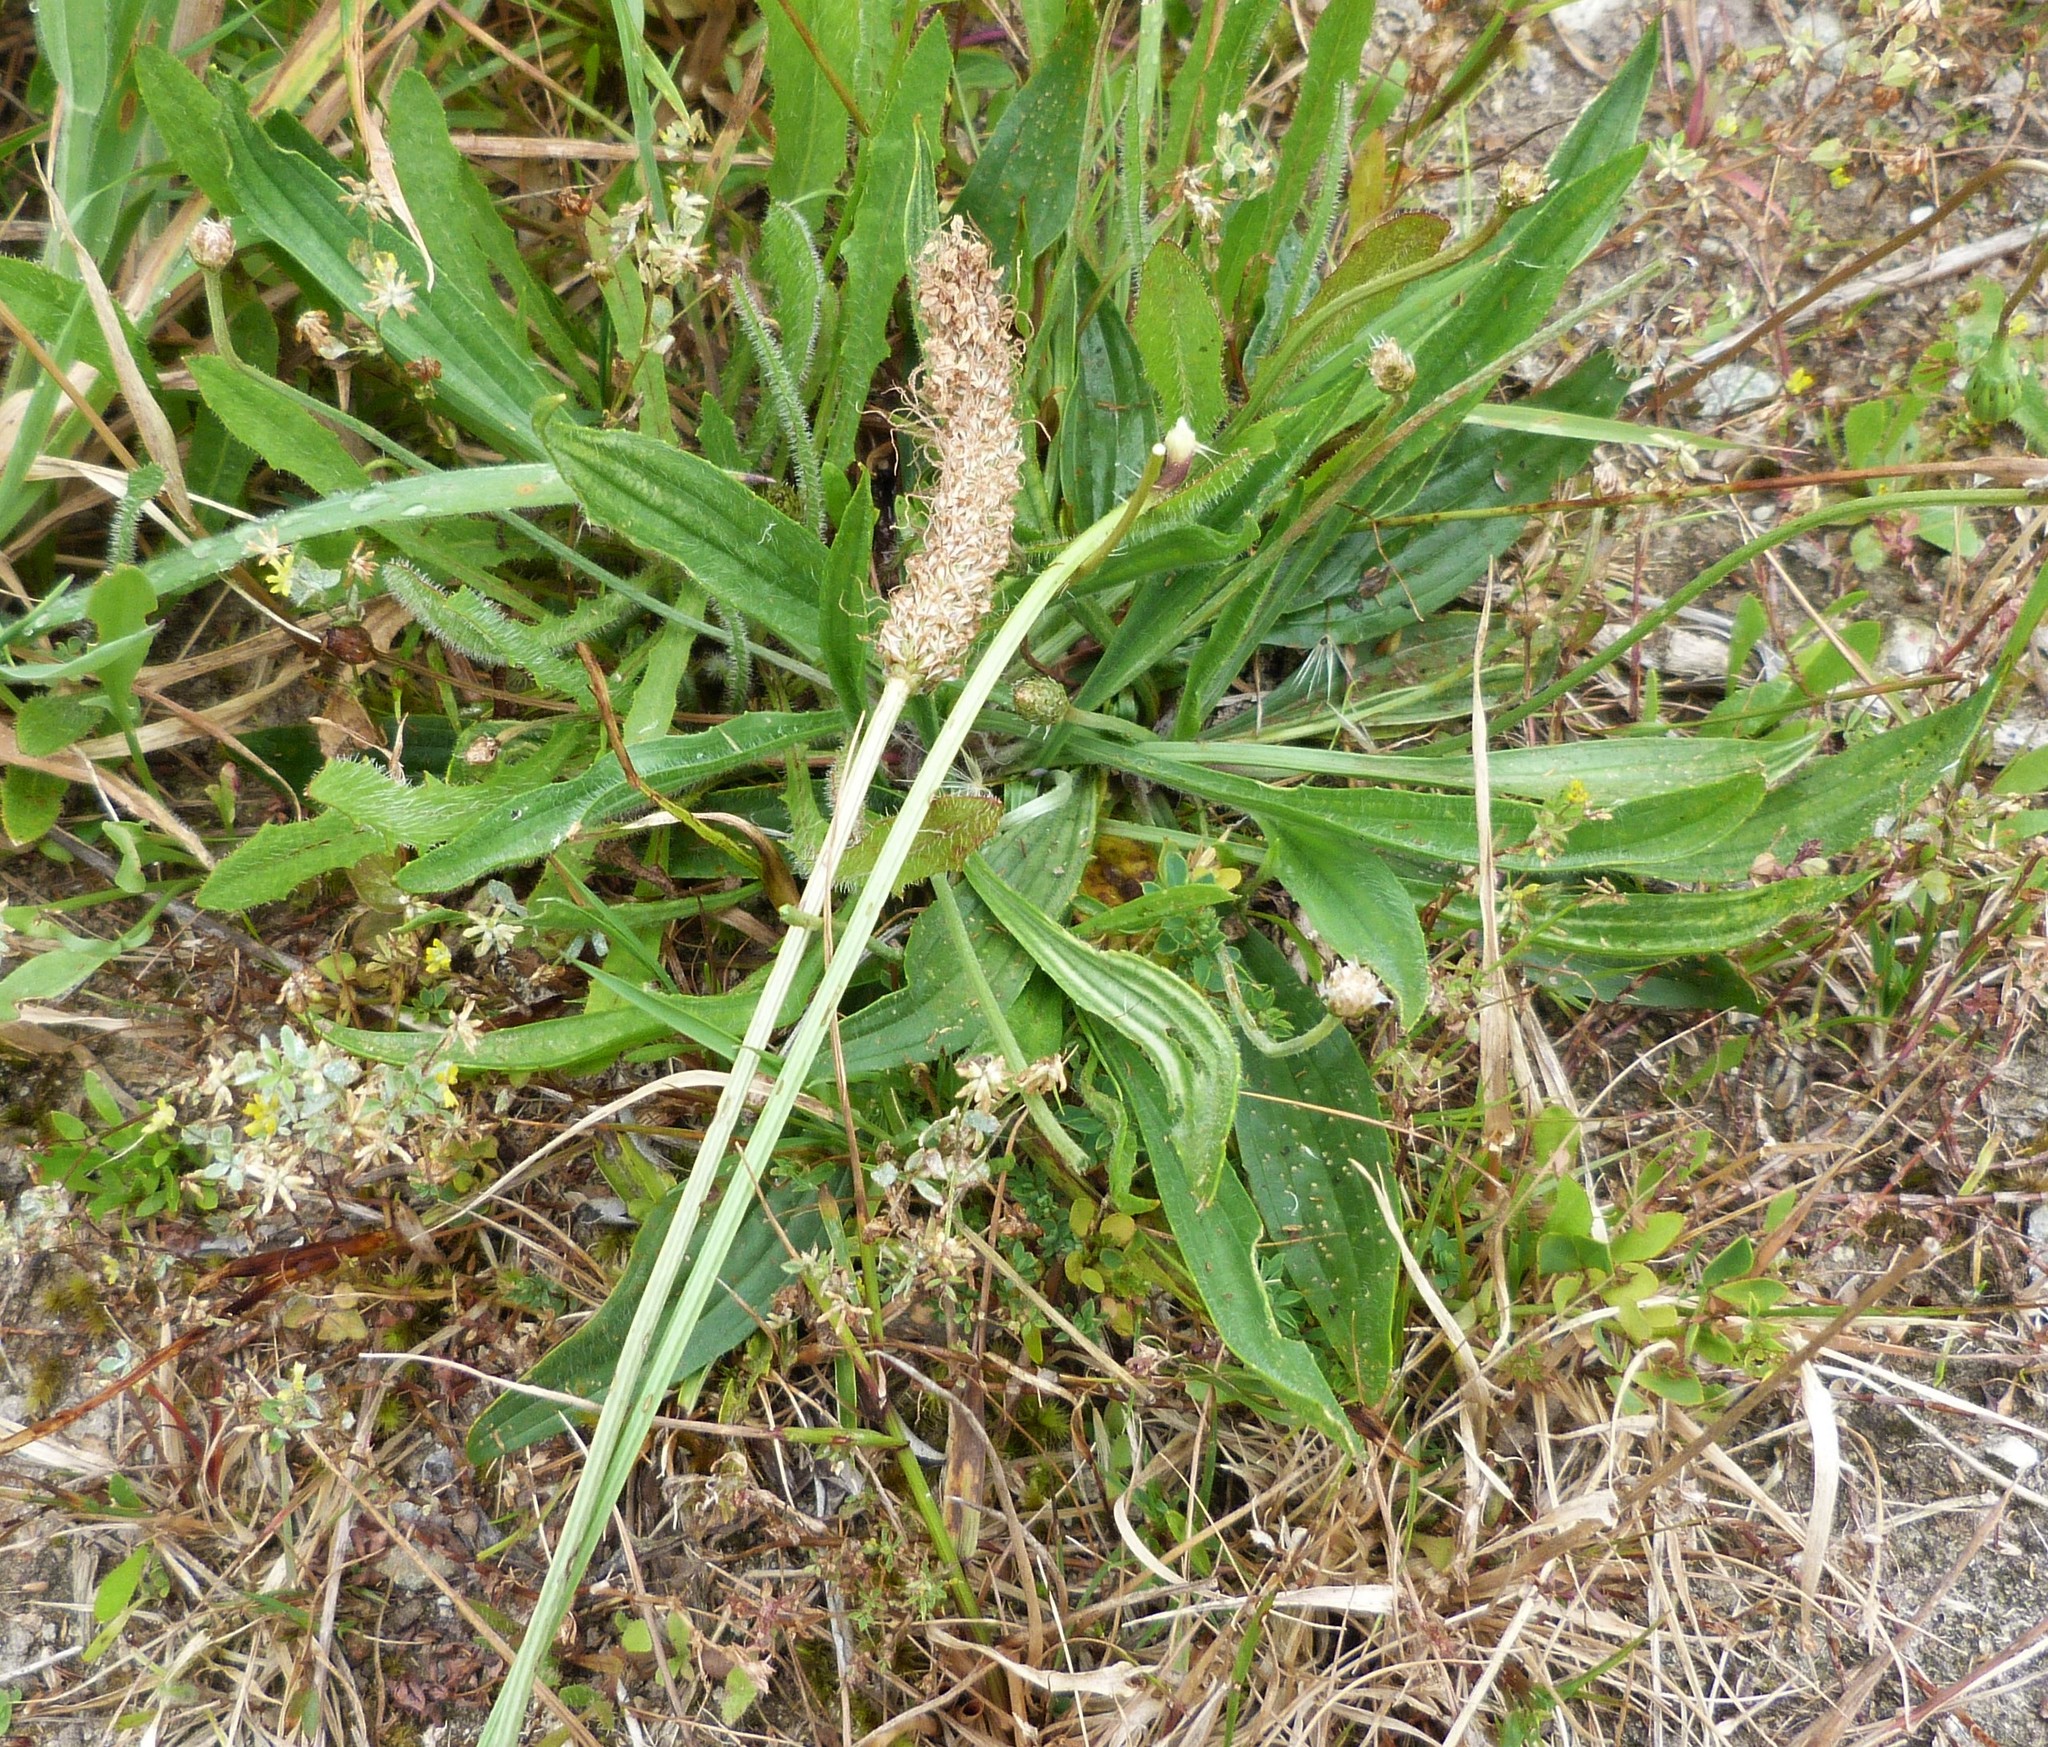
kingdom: Plantae
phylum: Tracheophyta
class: Magnoliopsida
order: Lamiales
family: Plantaginaceae
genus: Plantago
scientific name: Plantago lanceolata
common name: Ribwort plantain
